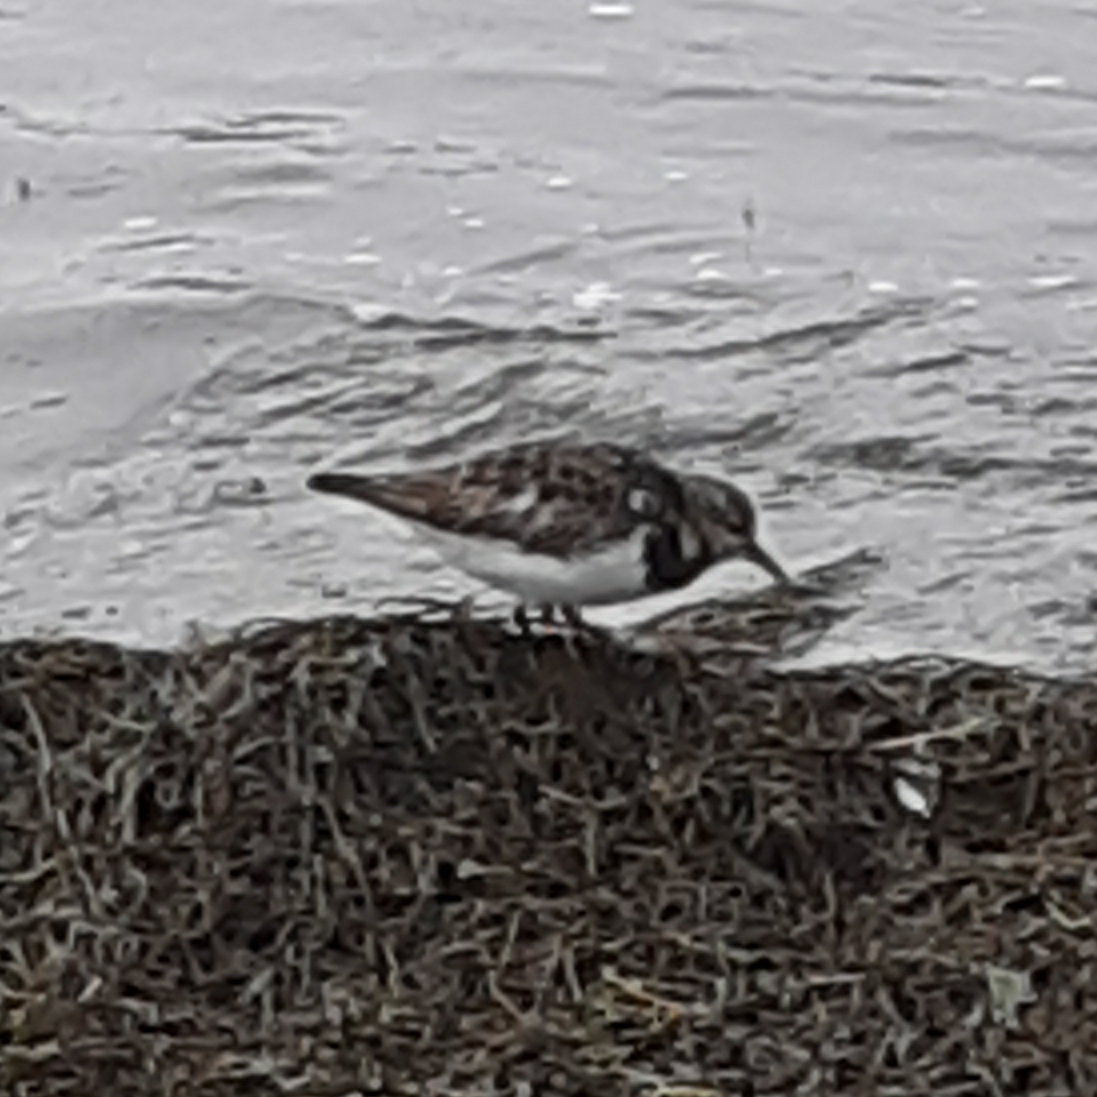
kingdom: Animalia
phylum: Chordata
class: Aves
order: Charadriiformes
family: Scolopacidae
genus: Arenaria
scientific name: Arenaria interpres
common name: Ruddy turnstone
